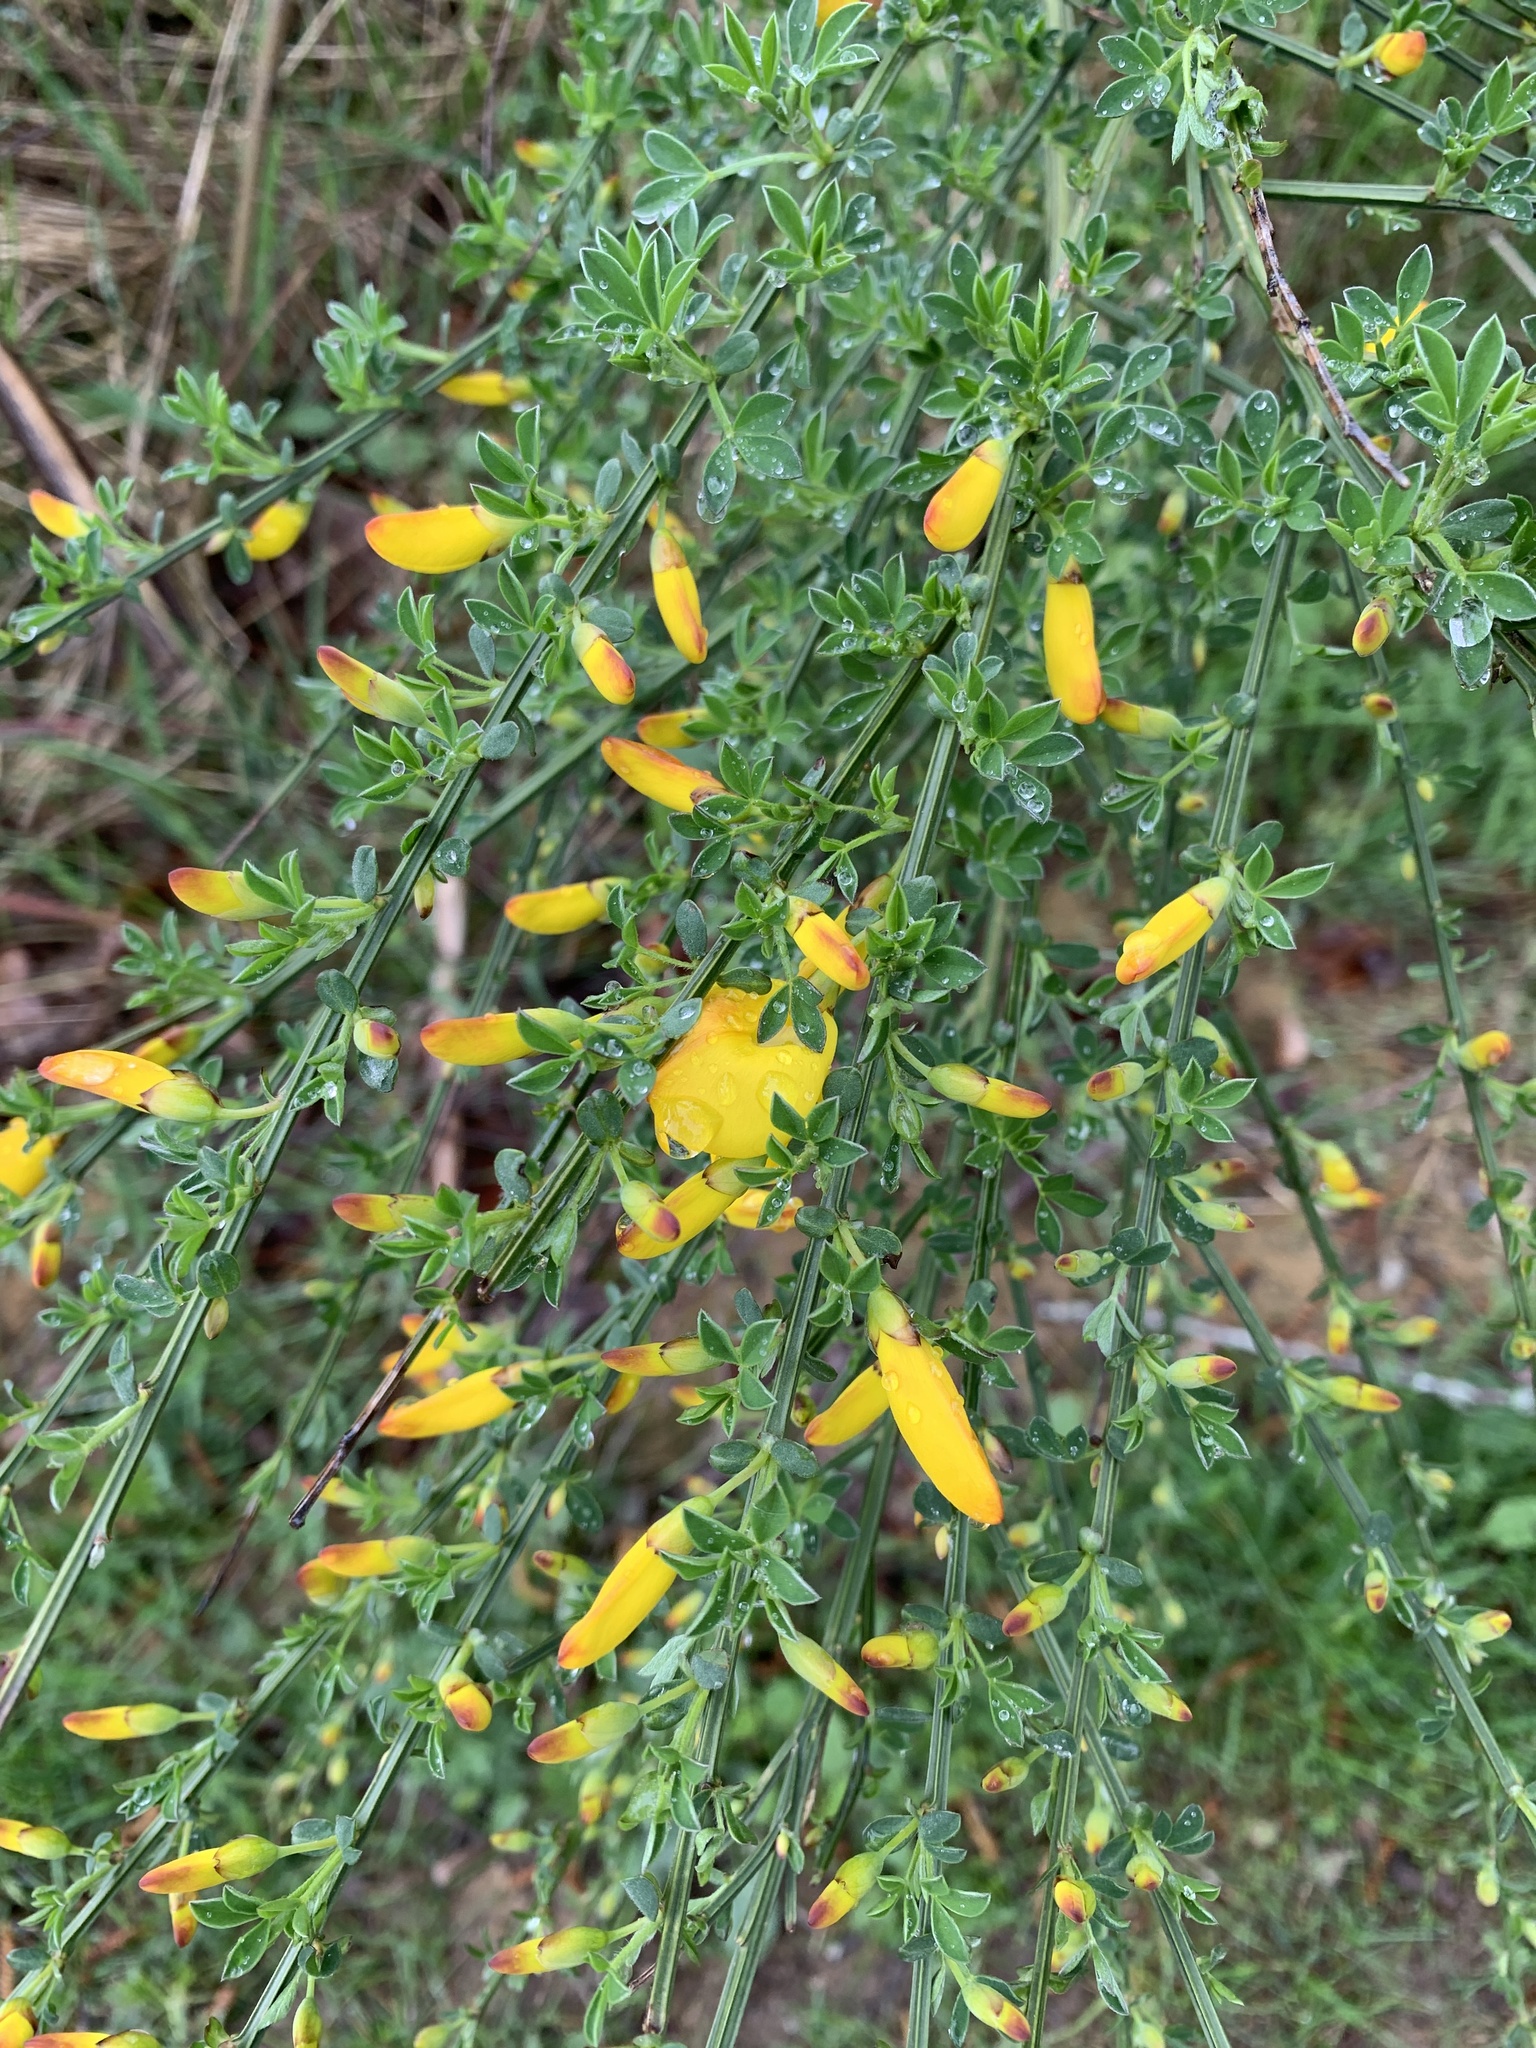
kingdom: Plantae
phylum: Tracheophyta
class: Magnoliopsida
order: Fabales
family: Fabaceae
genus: Cytisus
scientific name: Cytisus scoparius
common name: Scotch broom
